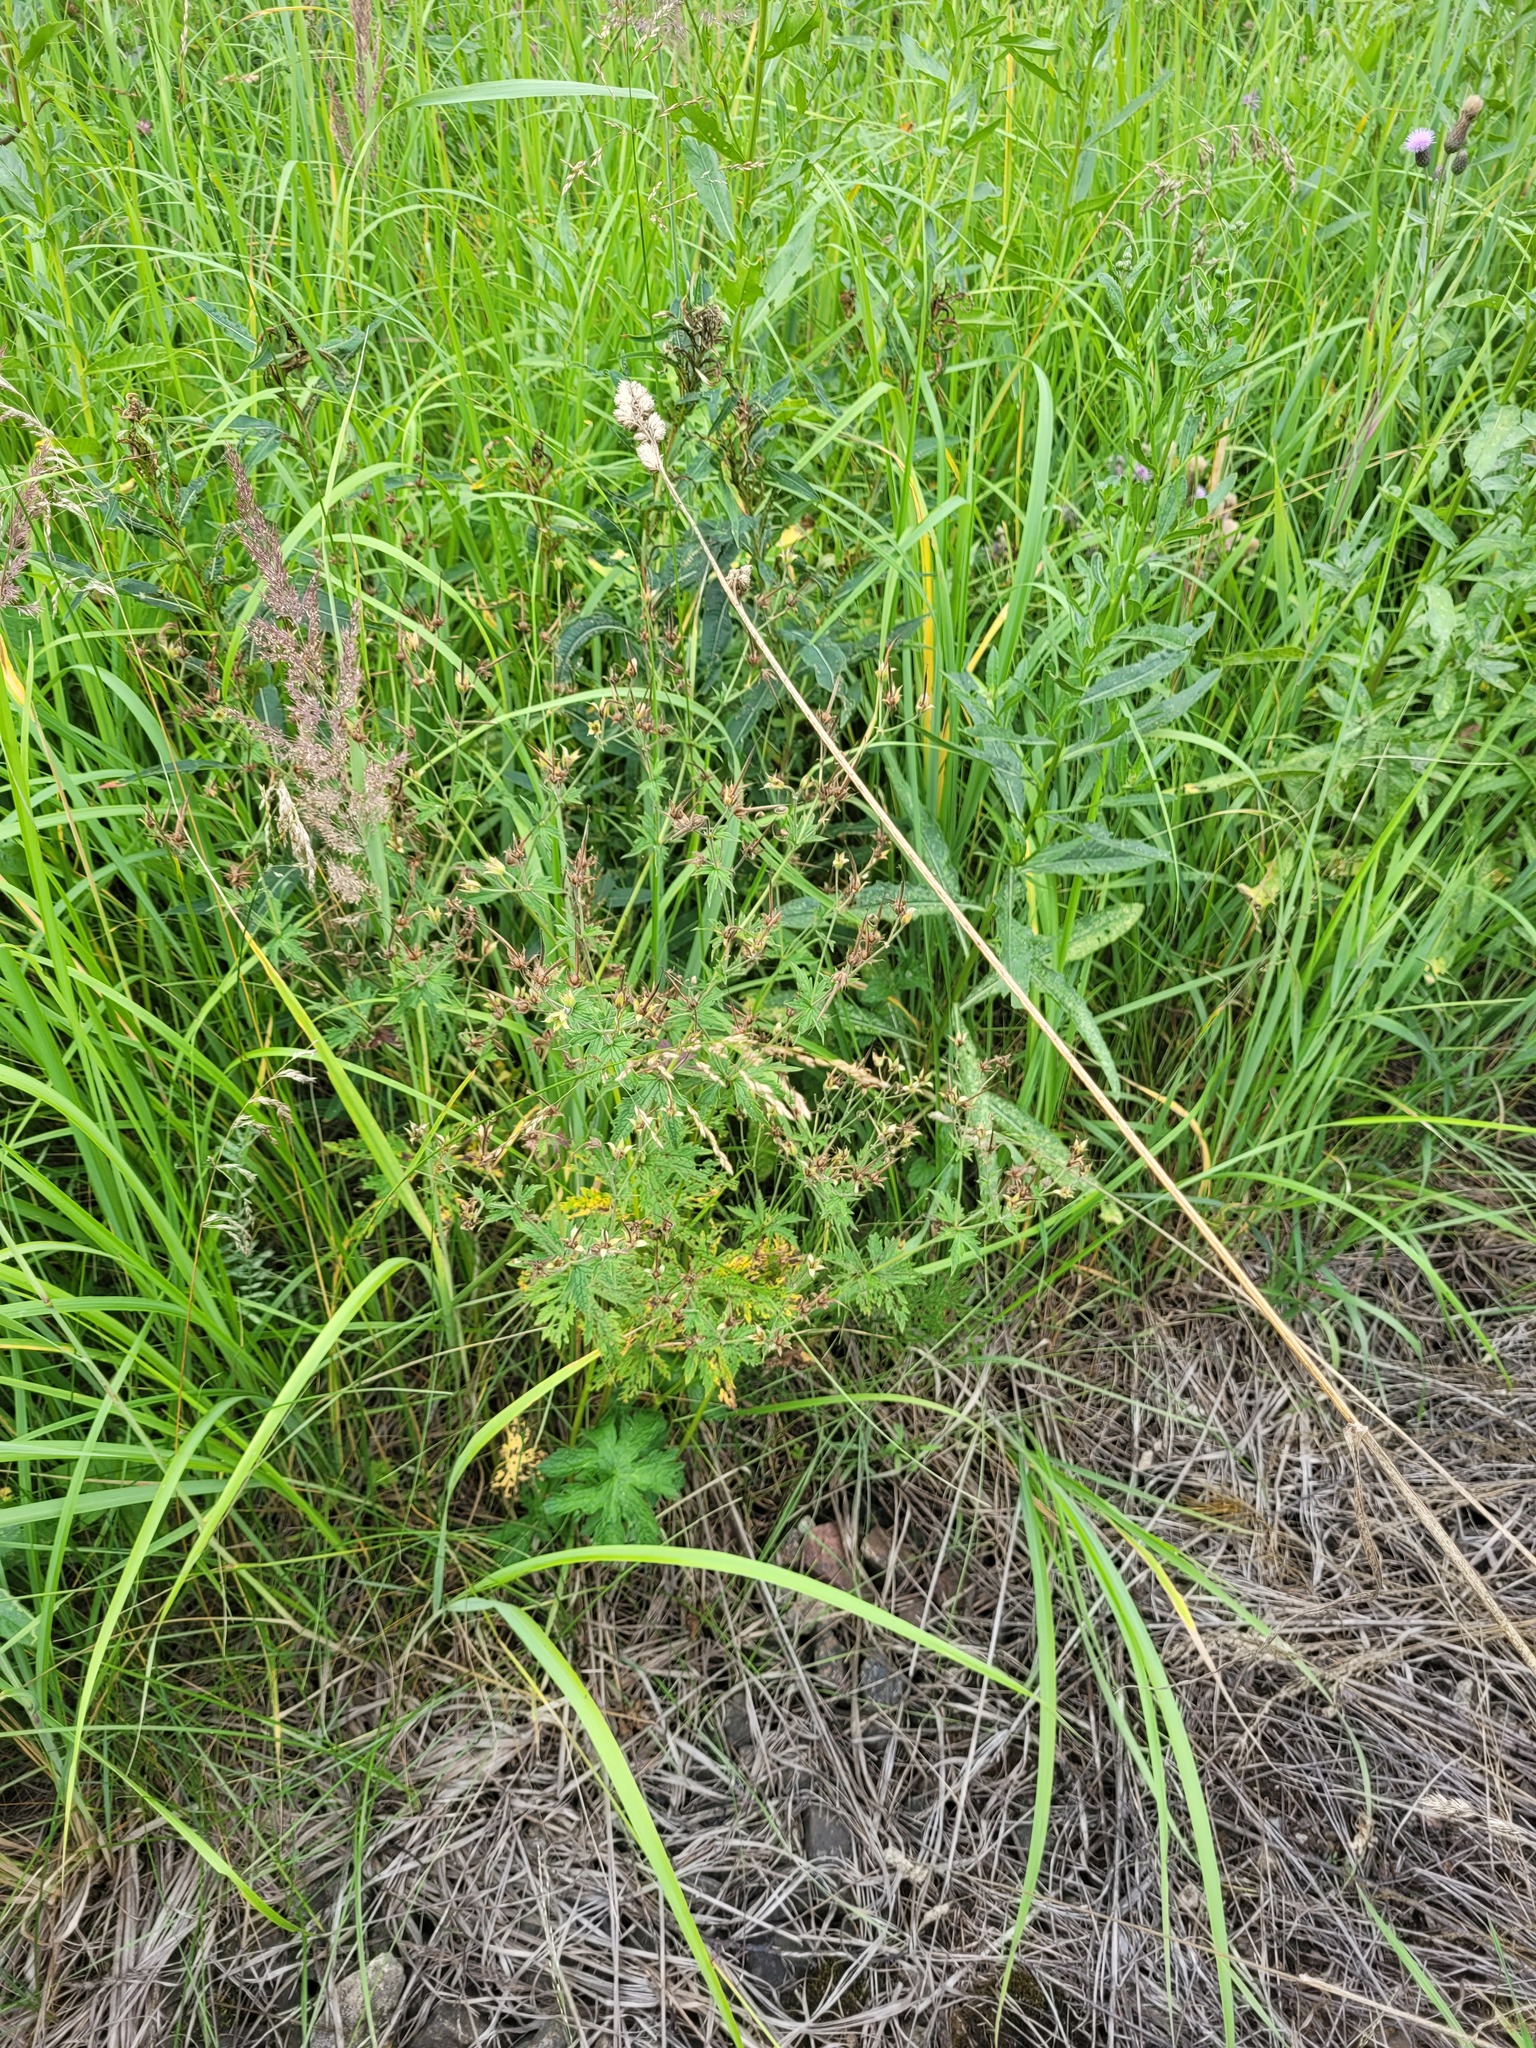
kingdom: Plantae
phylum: Tracheophyta
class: Magnoliopsida
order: Geraniales
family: Geraniaceae
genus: Geranium
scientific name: Geranium sylvaticum
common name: Wood crane's-bill
